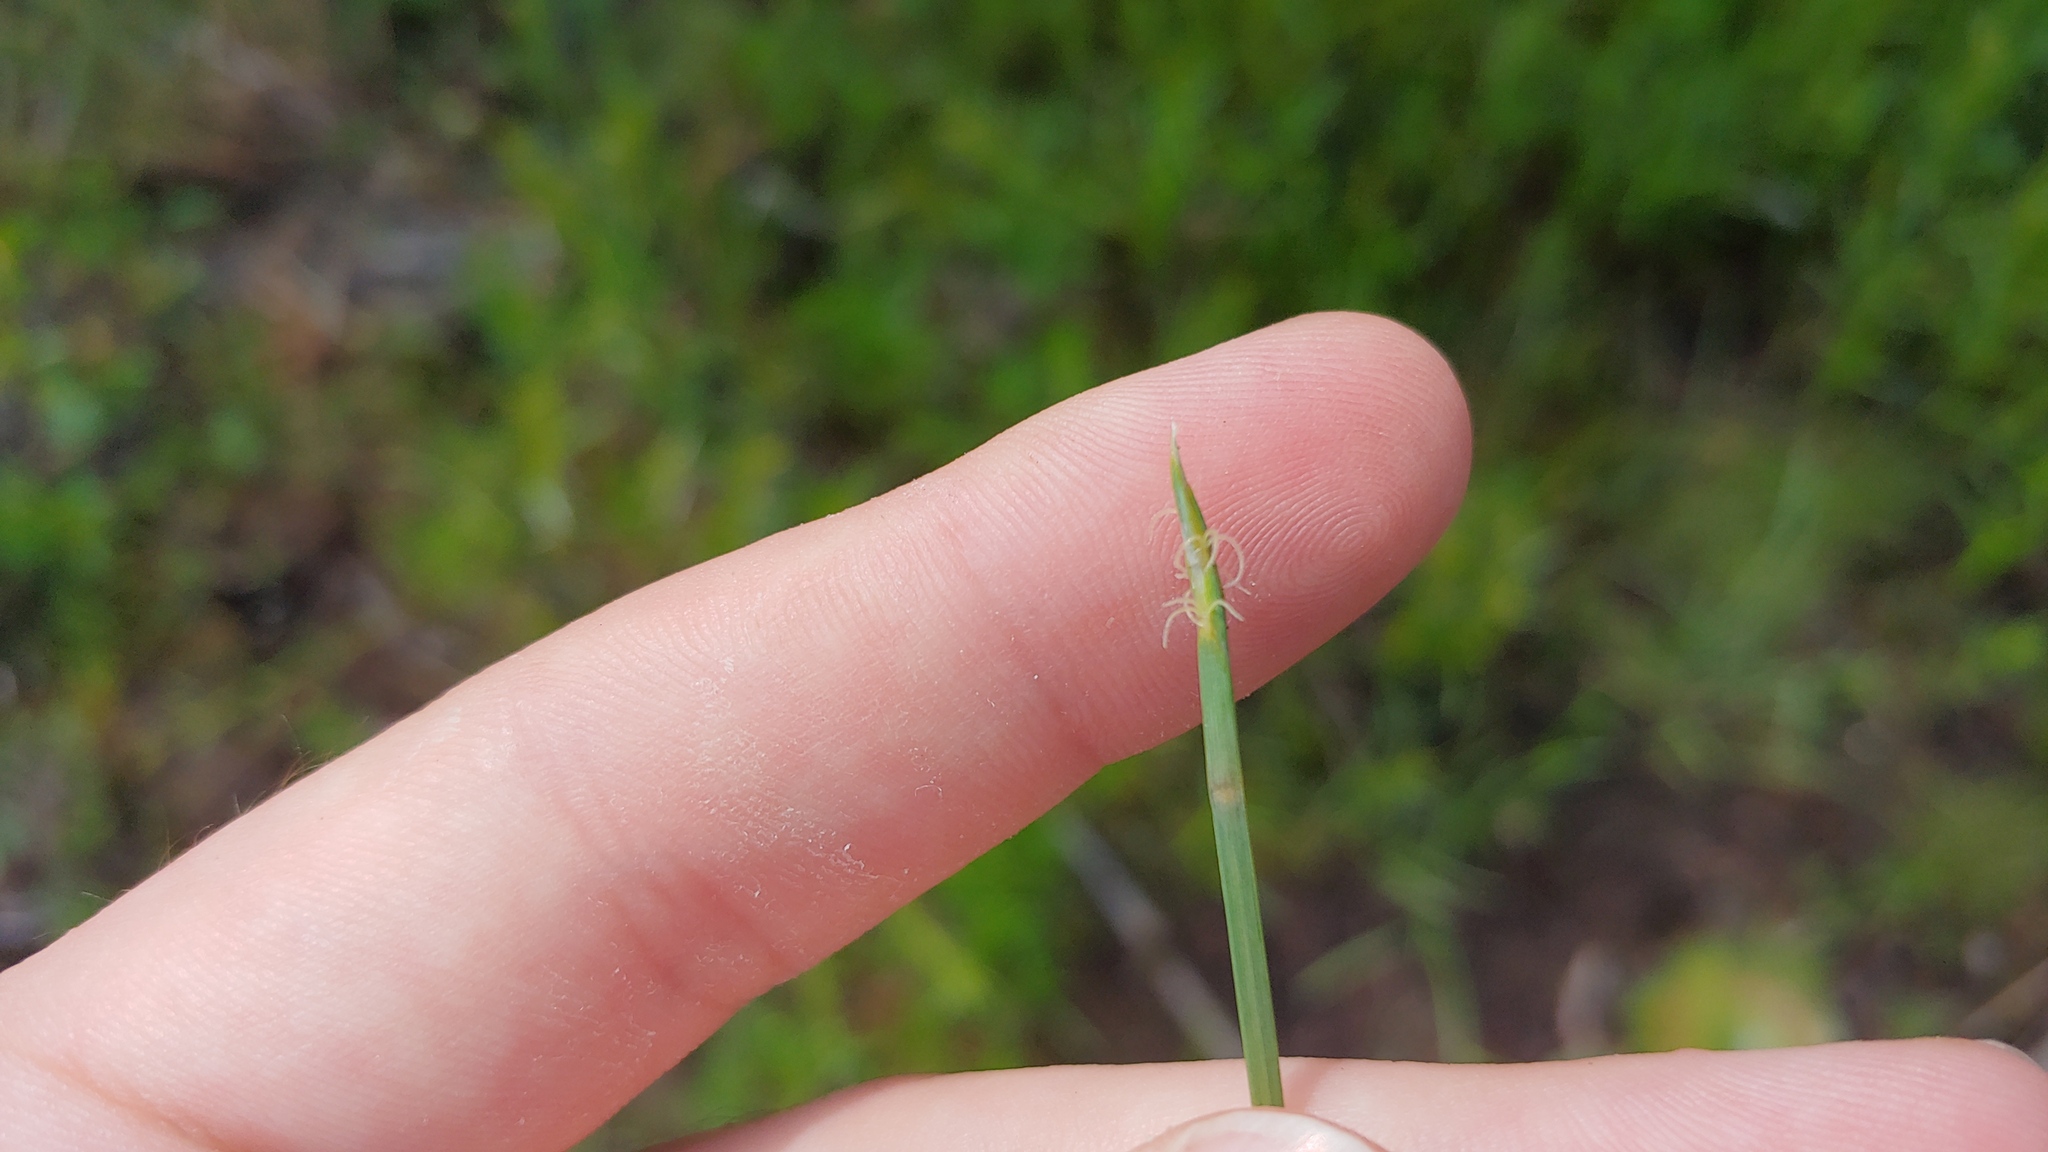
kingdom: Plantae
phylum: Tracheophyta
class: Liliopsida
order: Poales
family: Cyperaceae
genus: Eleocharis
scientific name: Eleocharis robbinsii
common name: Robbins' spikerush
